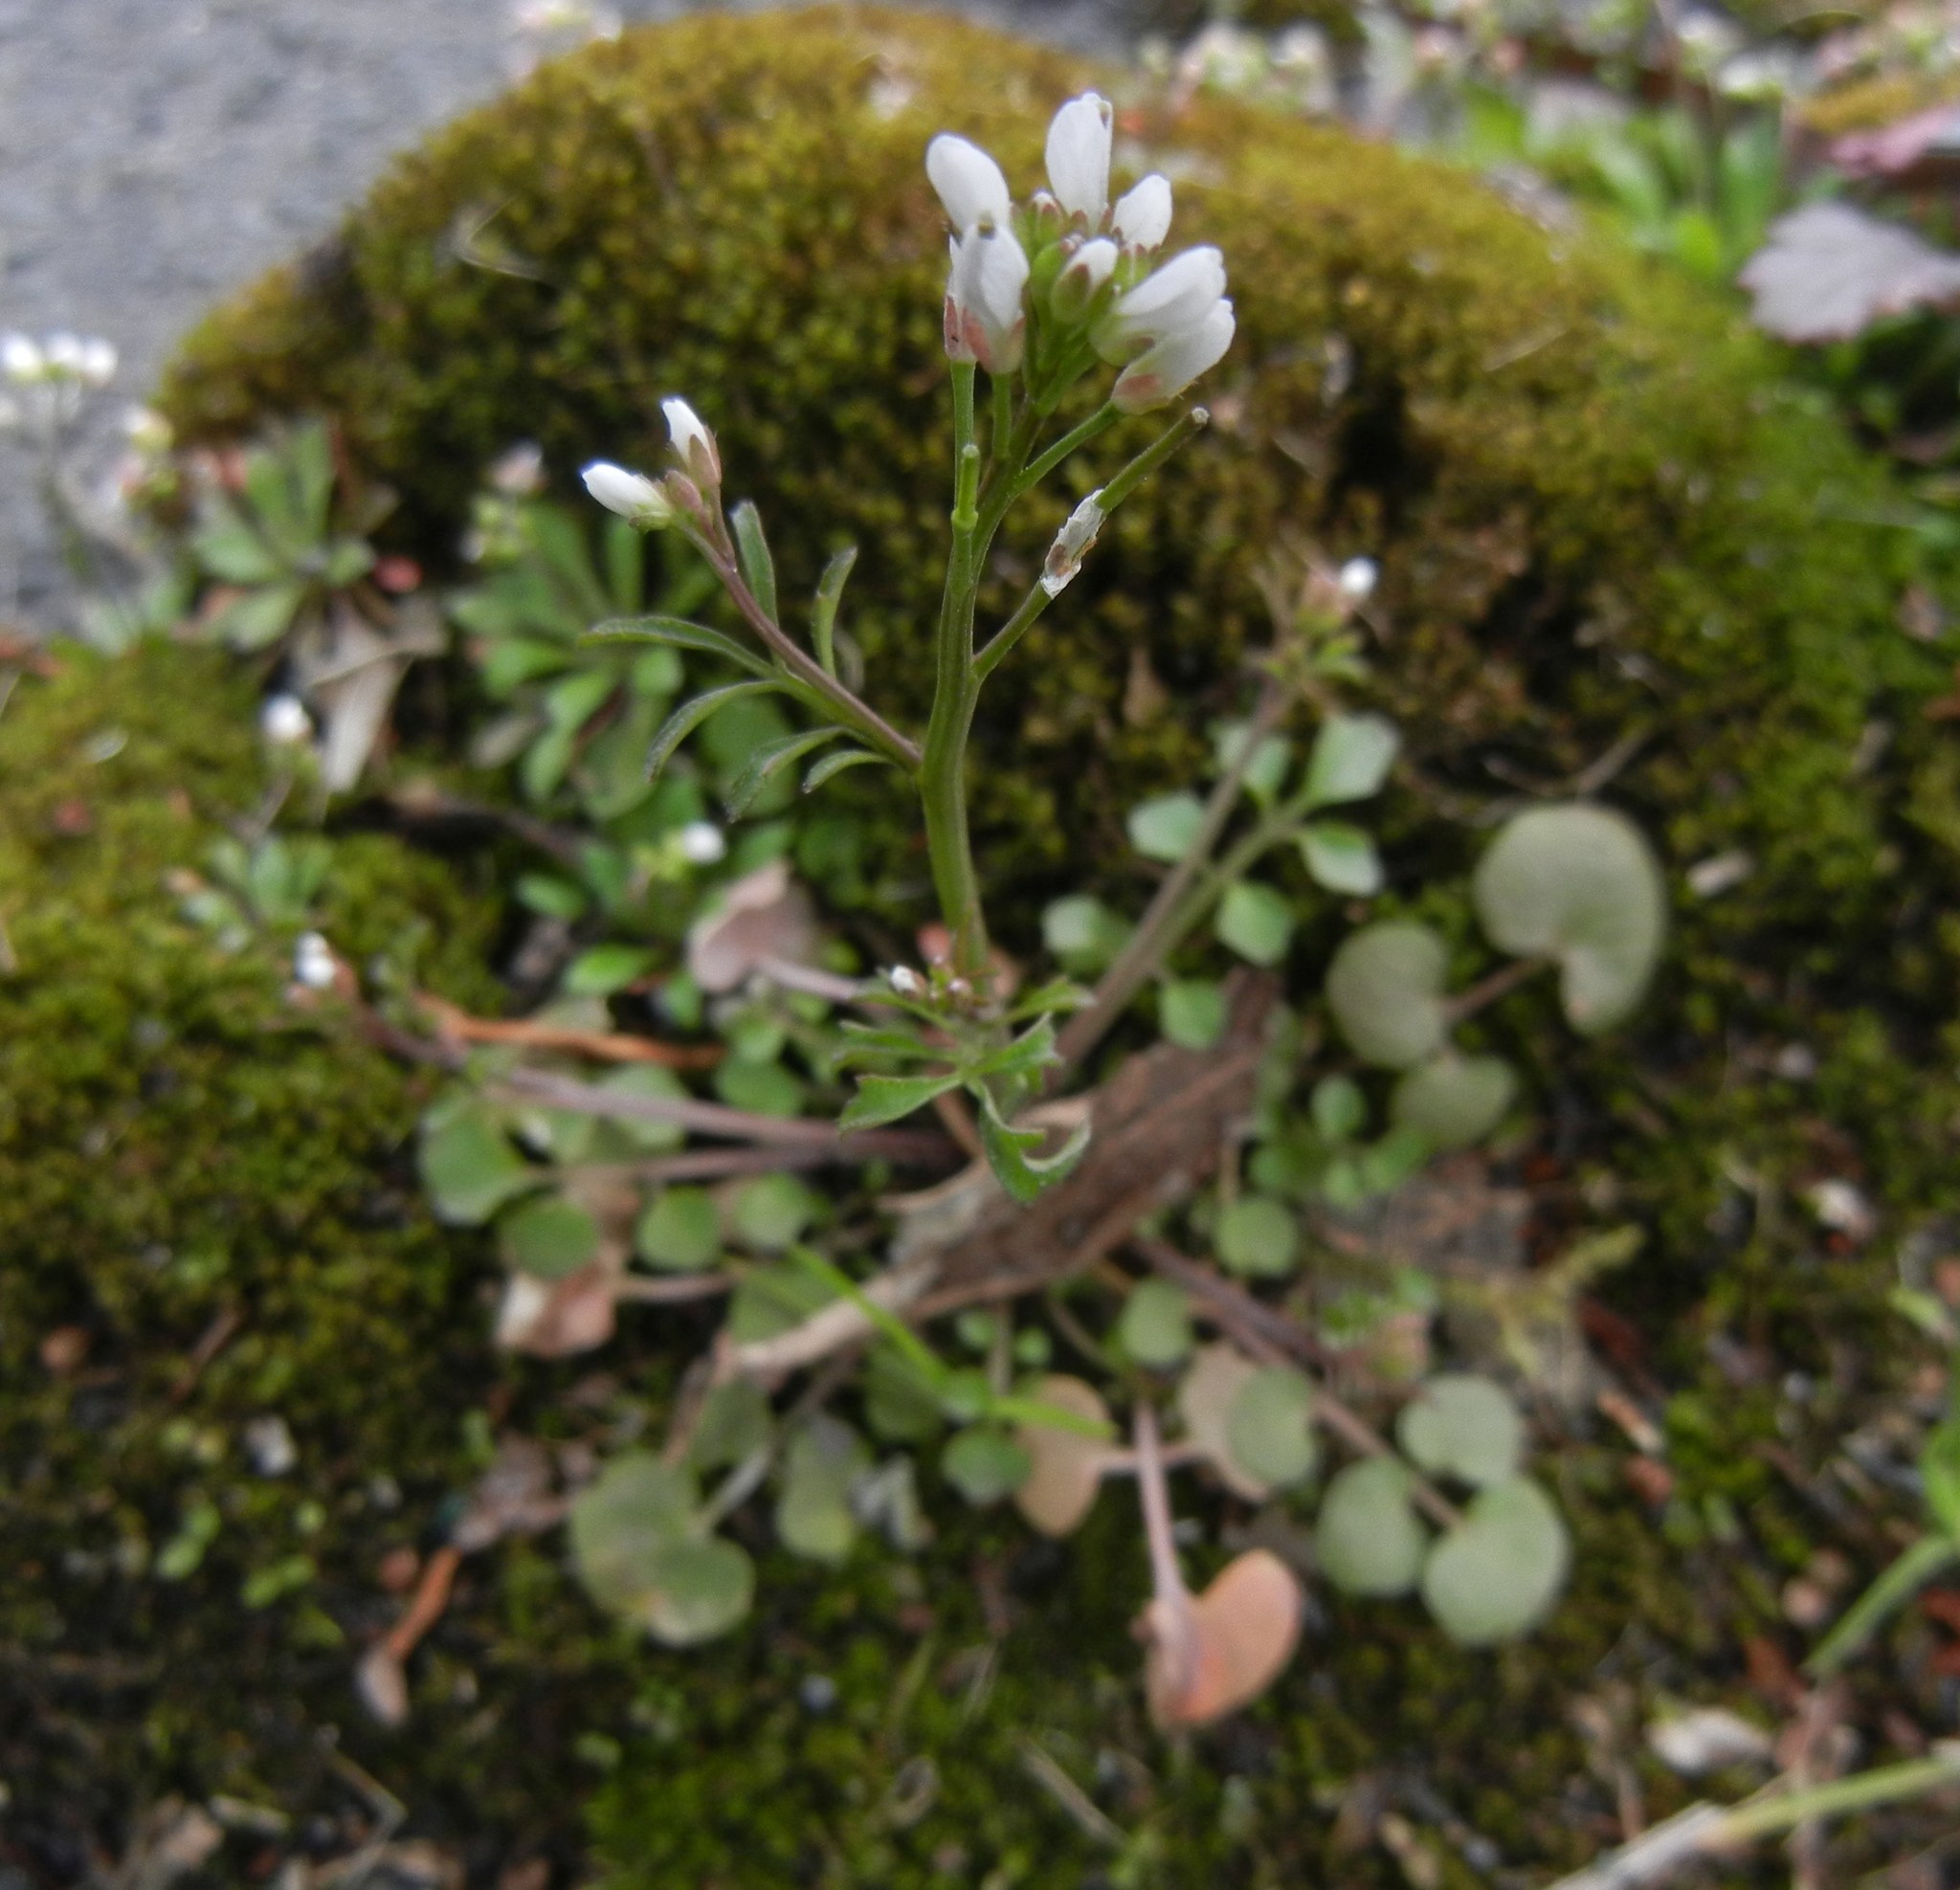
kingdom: Plantae
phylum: Tracheophyta
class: Magnoliopsida
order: Brassicales
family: Brassicaceae
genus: Cardamine
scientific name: Cardamine hirsuta
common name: Hairy bittercress
